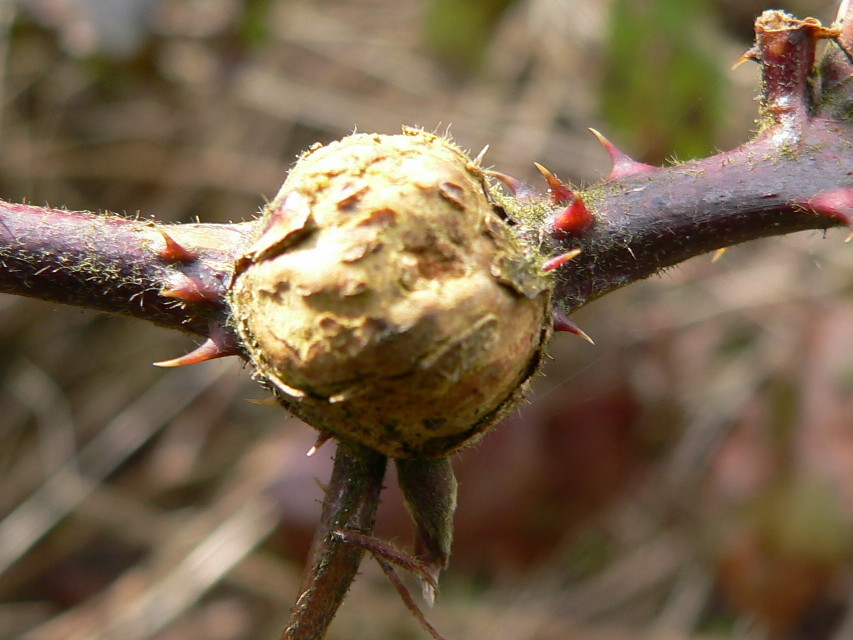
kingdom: Animalia
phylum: Arthropoda
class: Insecta
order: Diptera
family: Cecidomyiidae
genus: Lasioptera
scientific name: Lasioptera rubi
